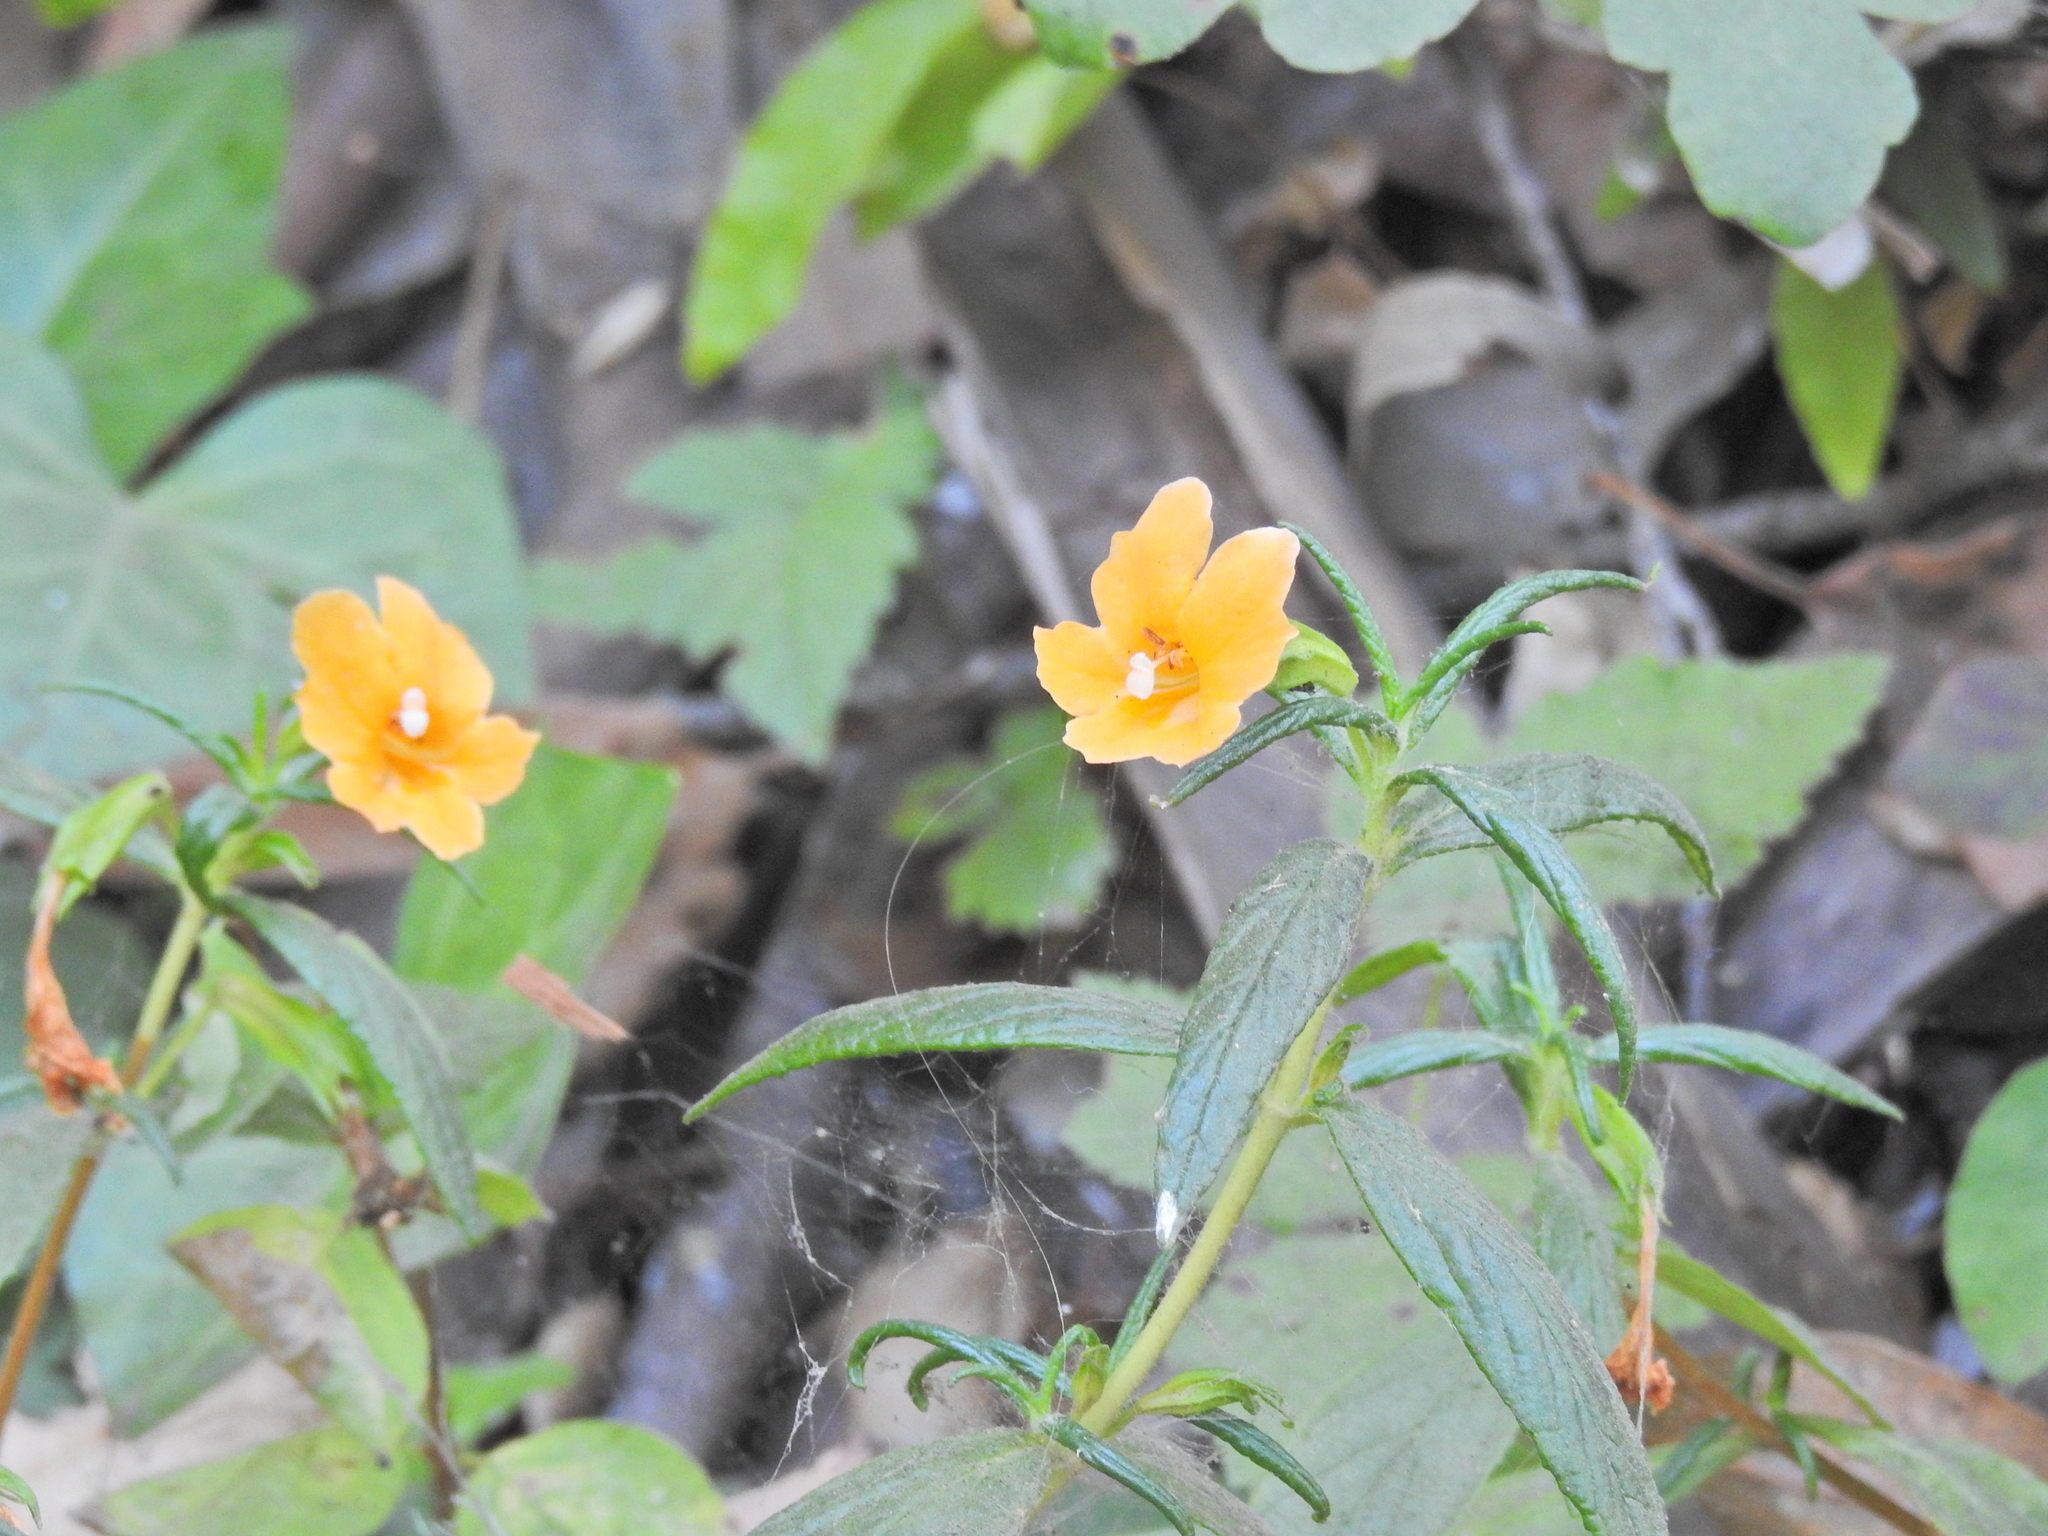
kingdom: Plantae
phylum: Tracheophyta
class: Magnoliopsida
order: Lamiales
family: Phrymaceae
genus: Diplacus
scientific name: Diplacus aurantiacus
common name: Bush monkey-flower
